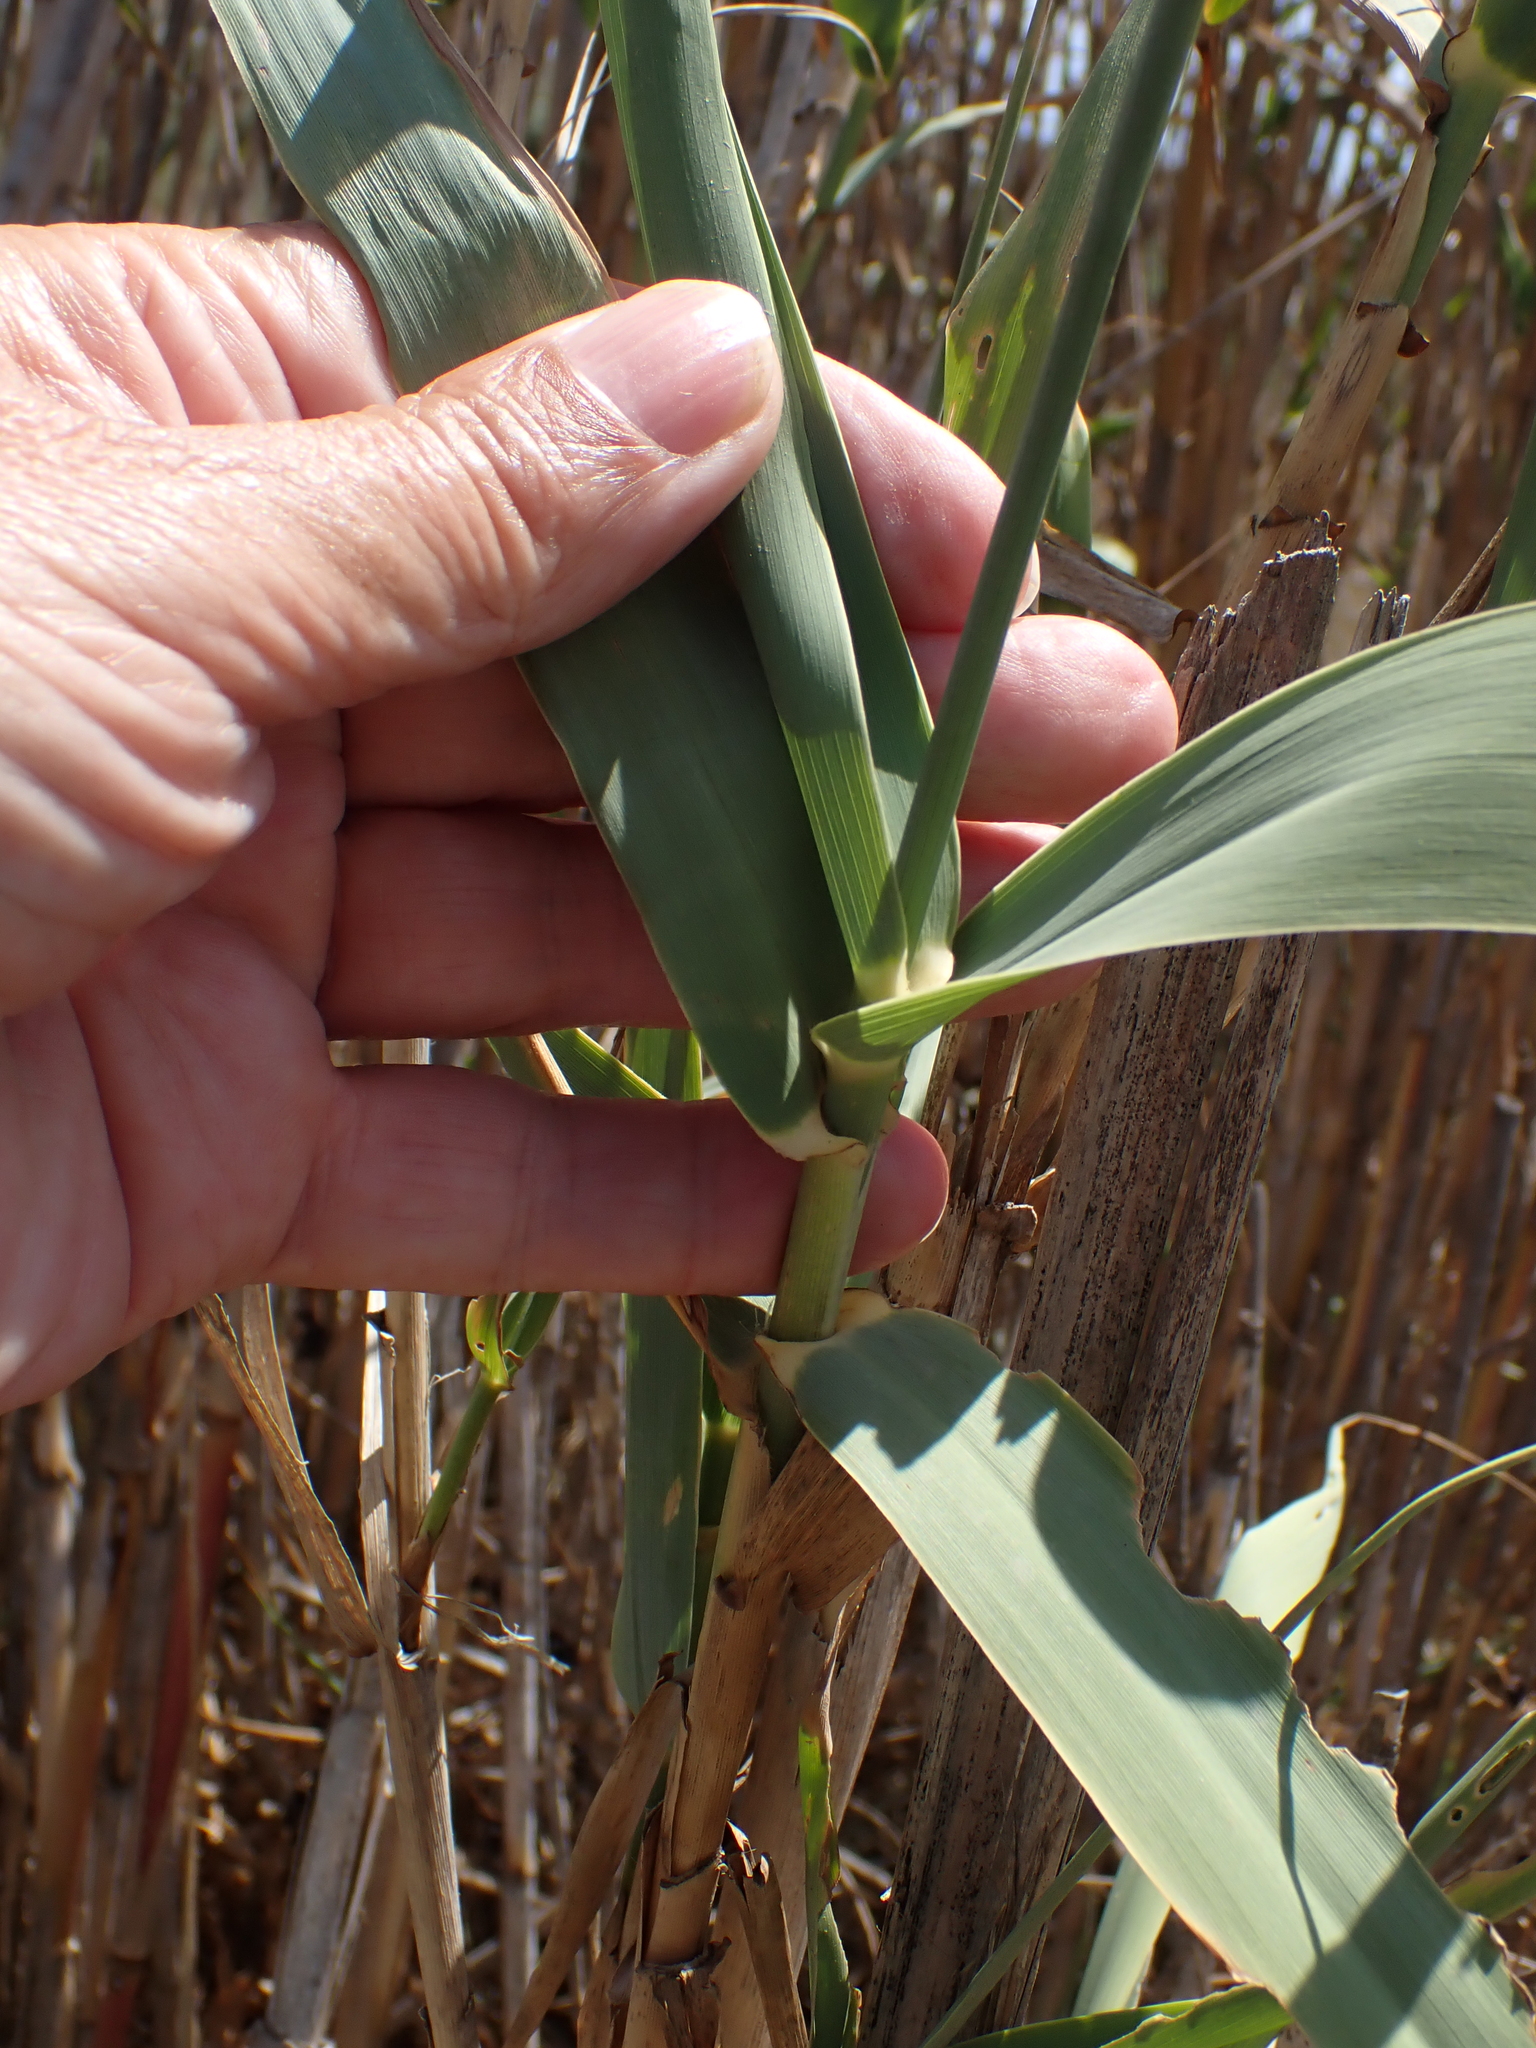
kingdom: Plantae
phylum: Tracheophyta
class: Liliopsida
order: Poales
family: Poaceae
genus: Arundo
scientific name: Arundo donax
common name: Giant reed
